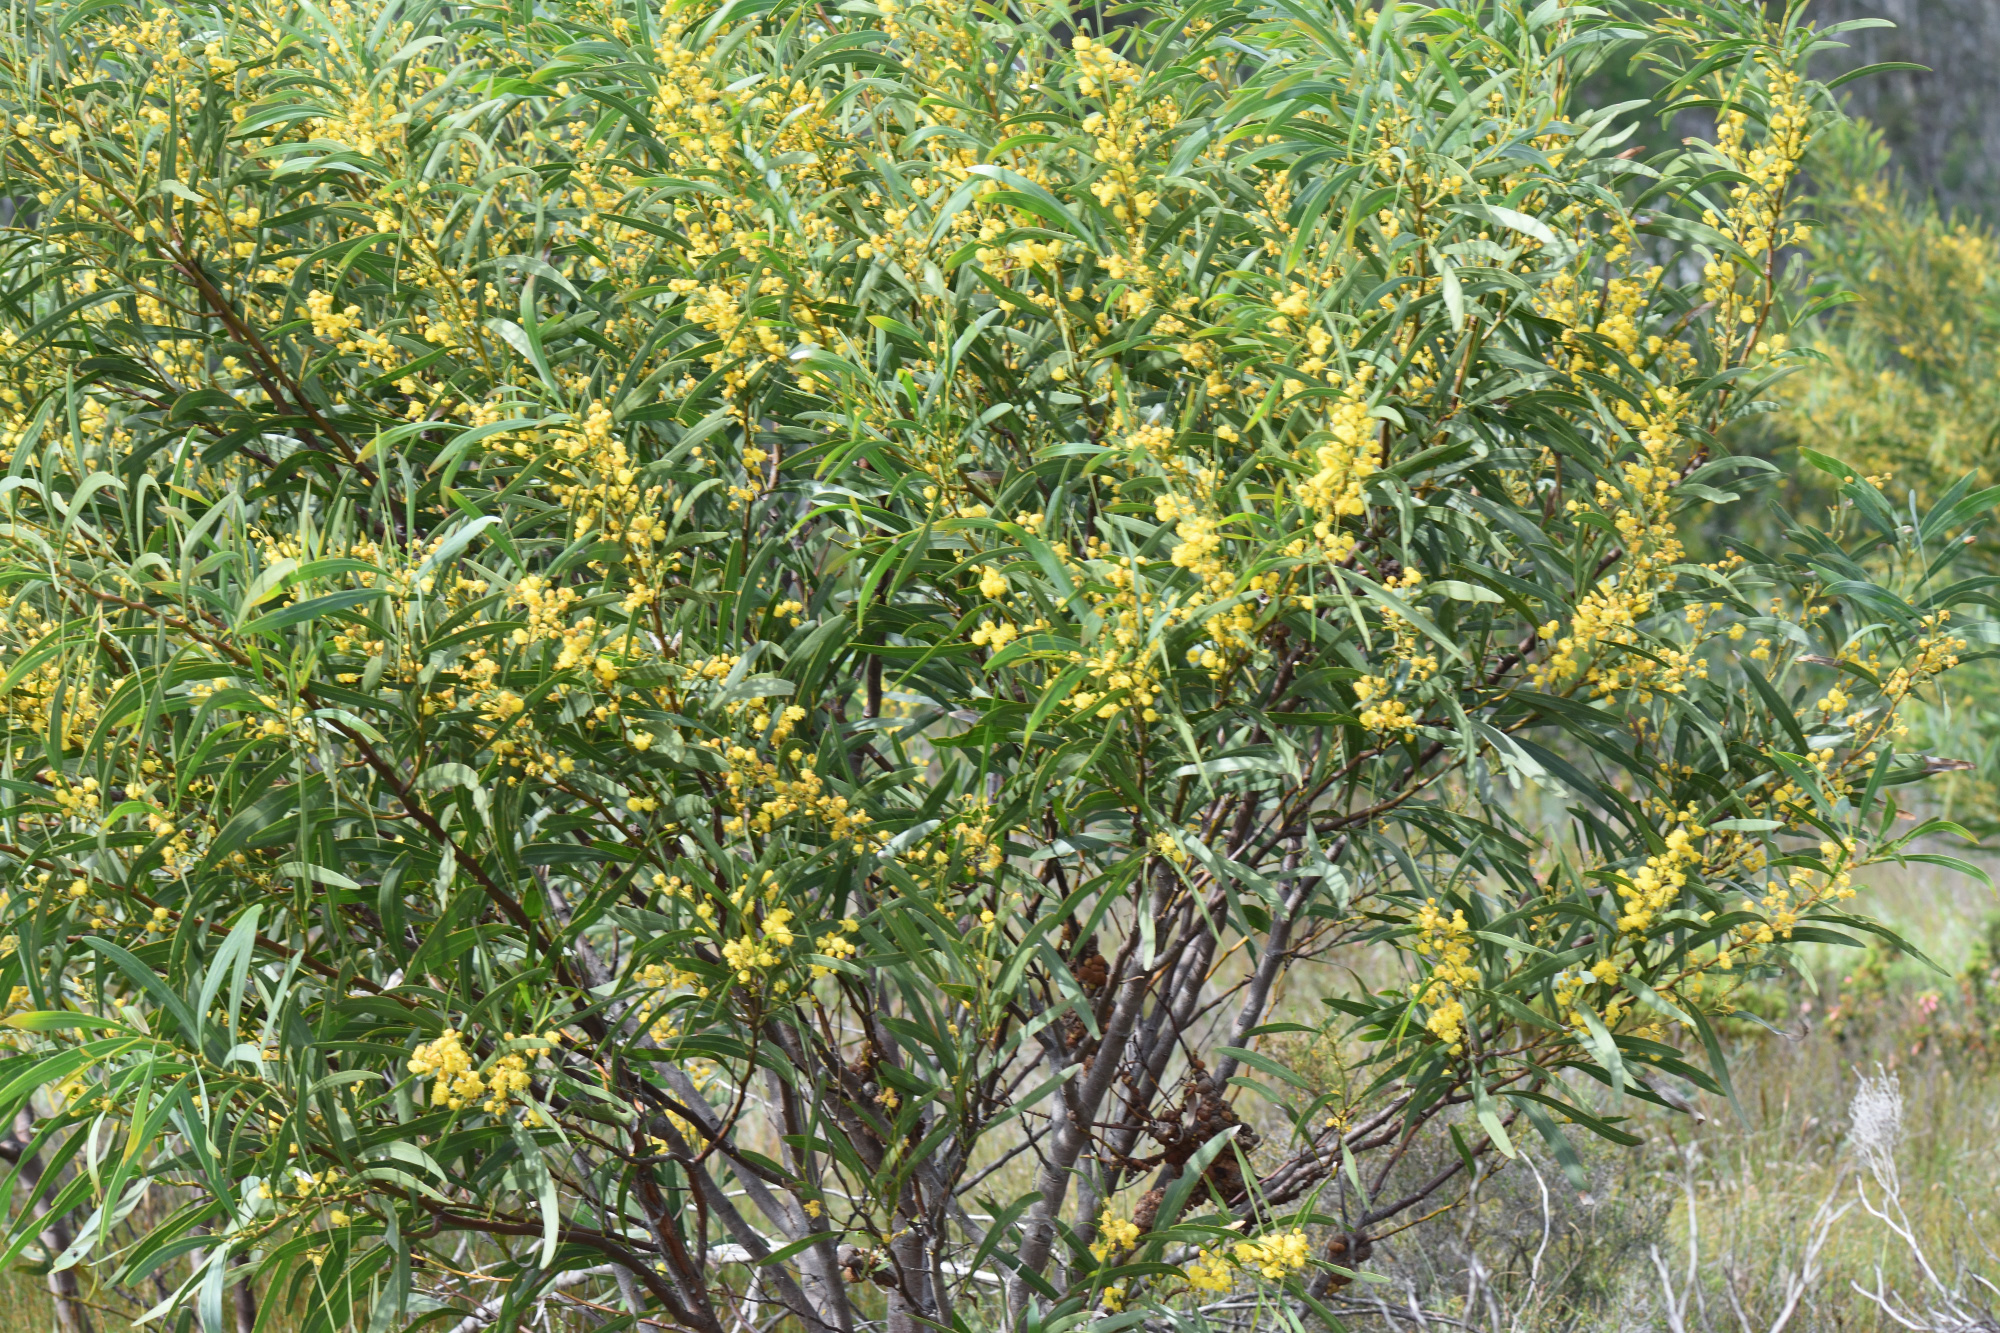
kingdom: Plantae
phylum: Tracheophyta
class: Magnoliopsida
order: Fabales
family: Fabaceae
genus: Acacia
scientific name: Acacia saligna
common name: Orange wattle
